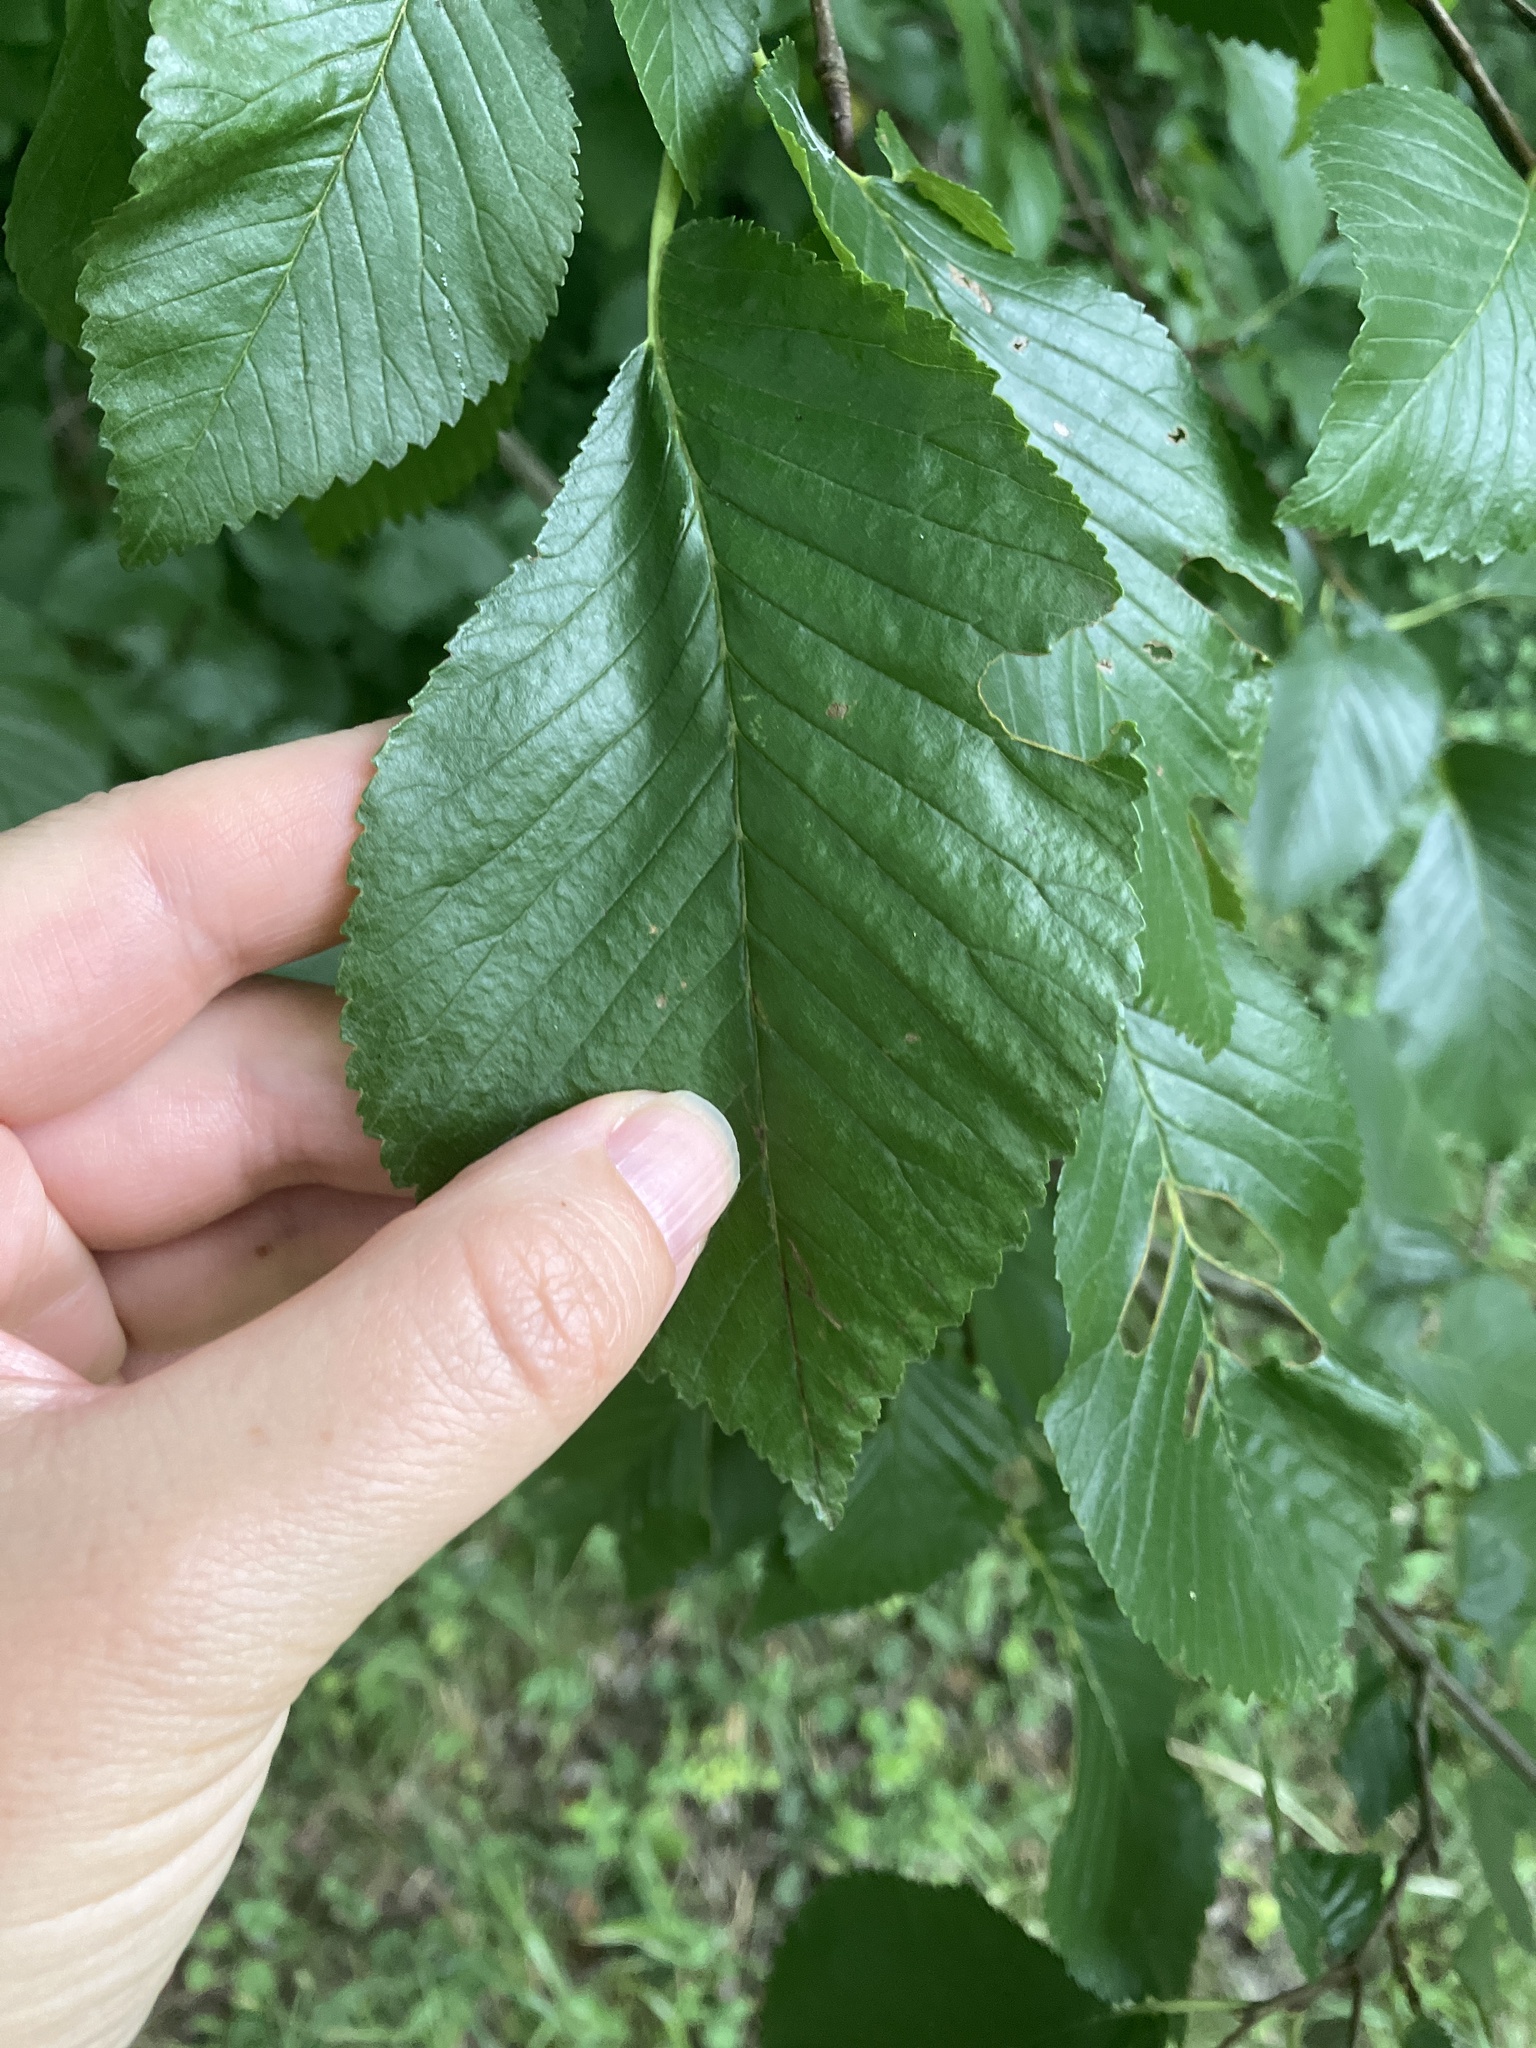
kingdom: Plantae
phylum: Tracheophyta
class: Magnoliopsida
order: Rosales
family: Ulmaceae
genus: Ulmus
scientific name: Ulmus laevis
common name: European white-elm
